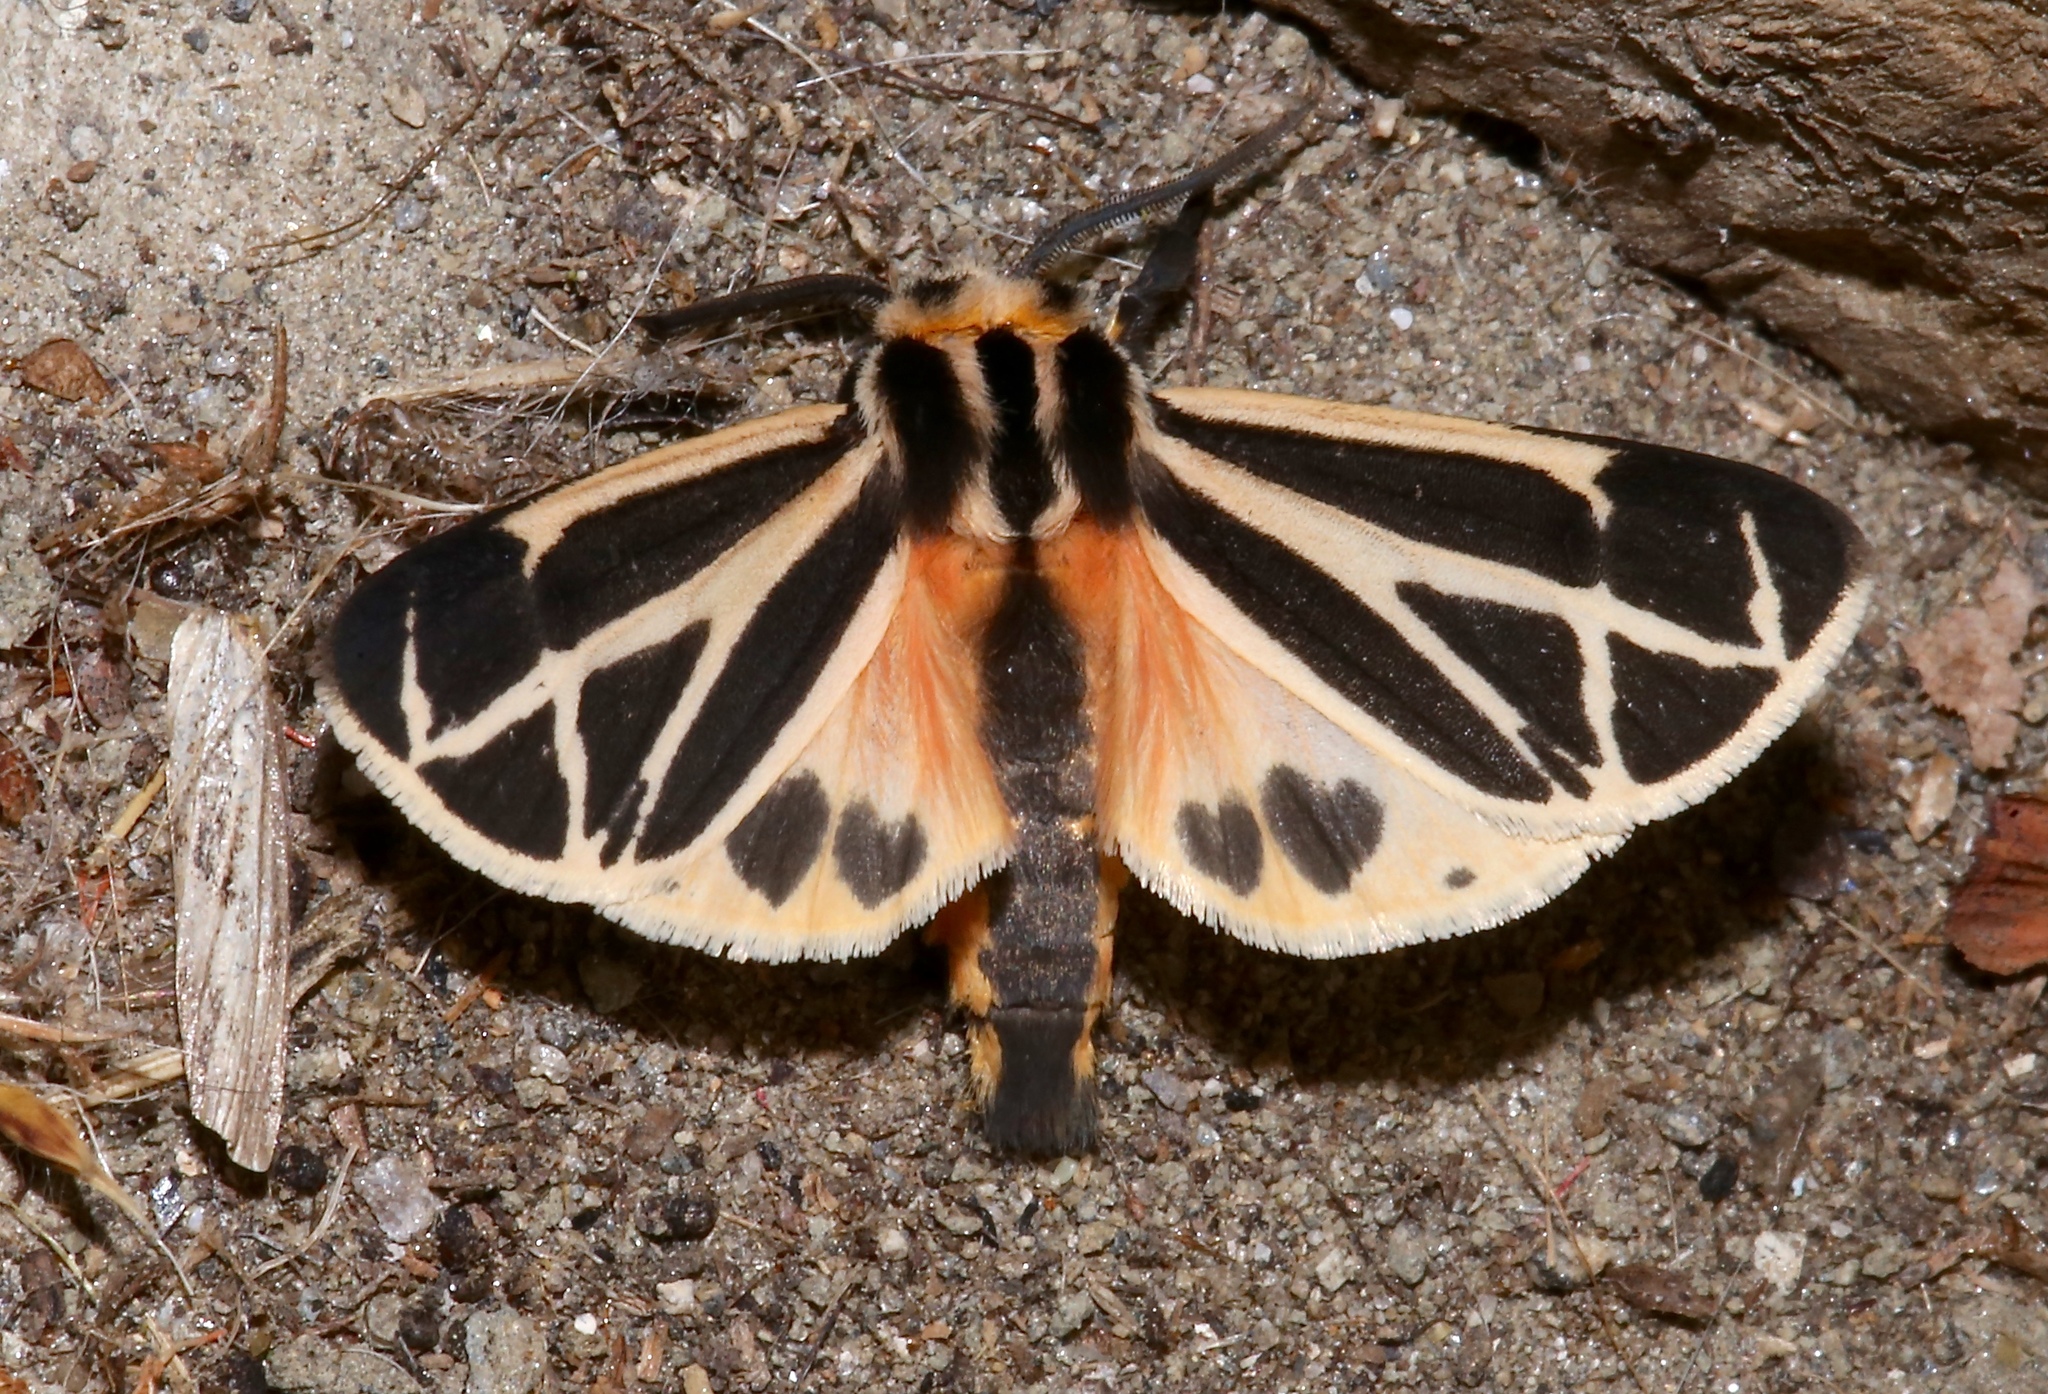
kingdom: Animalia
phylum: Arthropoda
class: Insecta
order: Lepidoptera
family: Erebidae
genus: Apantesis
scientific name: Apantesis phalerata
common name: Harnessed tiger moth
